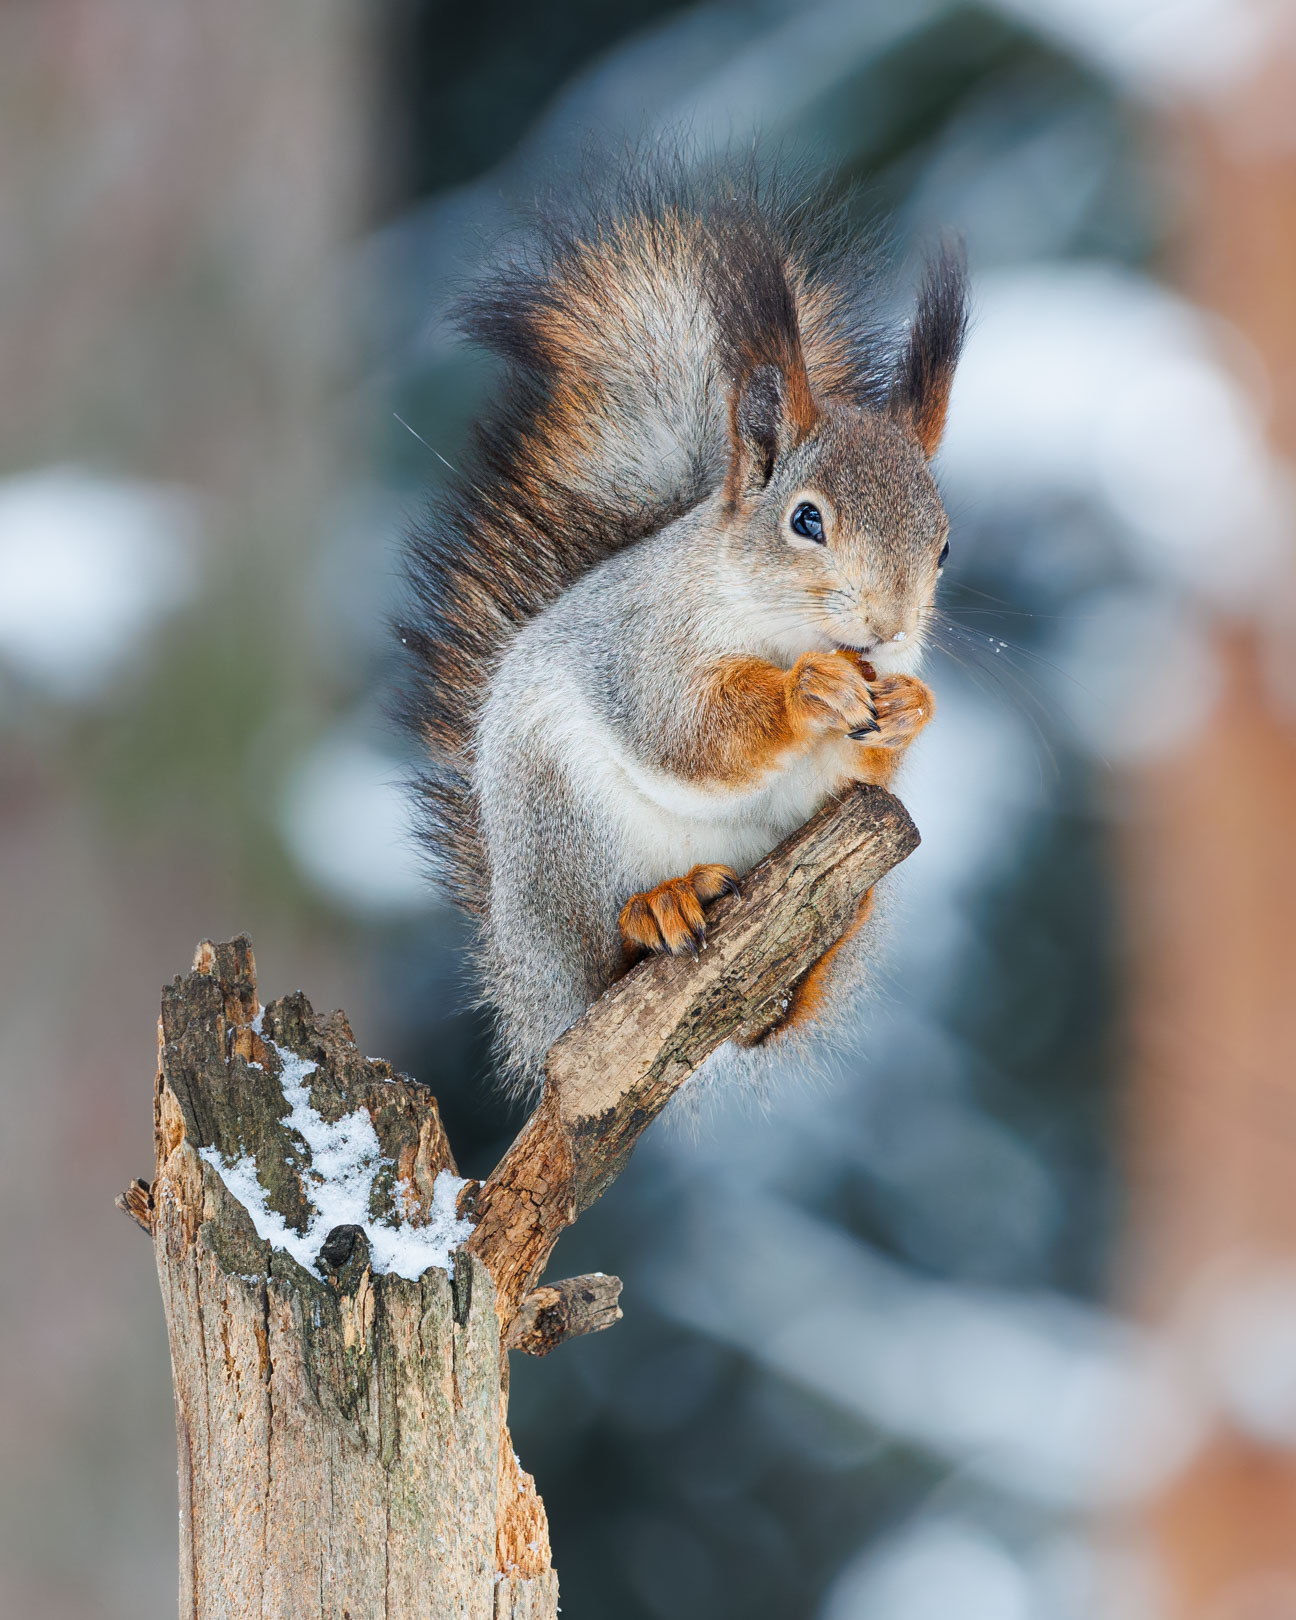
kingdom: Animalia
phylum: Chordata
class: Mammalia
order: Rodentia
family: Sciuridae
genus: Sciurus
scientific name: Sciurus vulgaris
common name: Eurasian red squirrel
